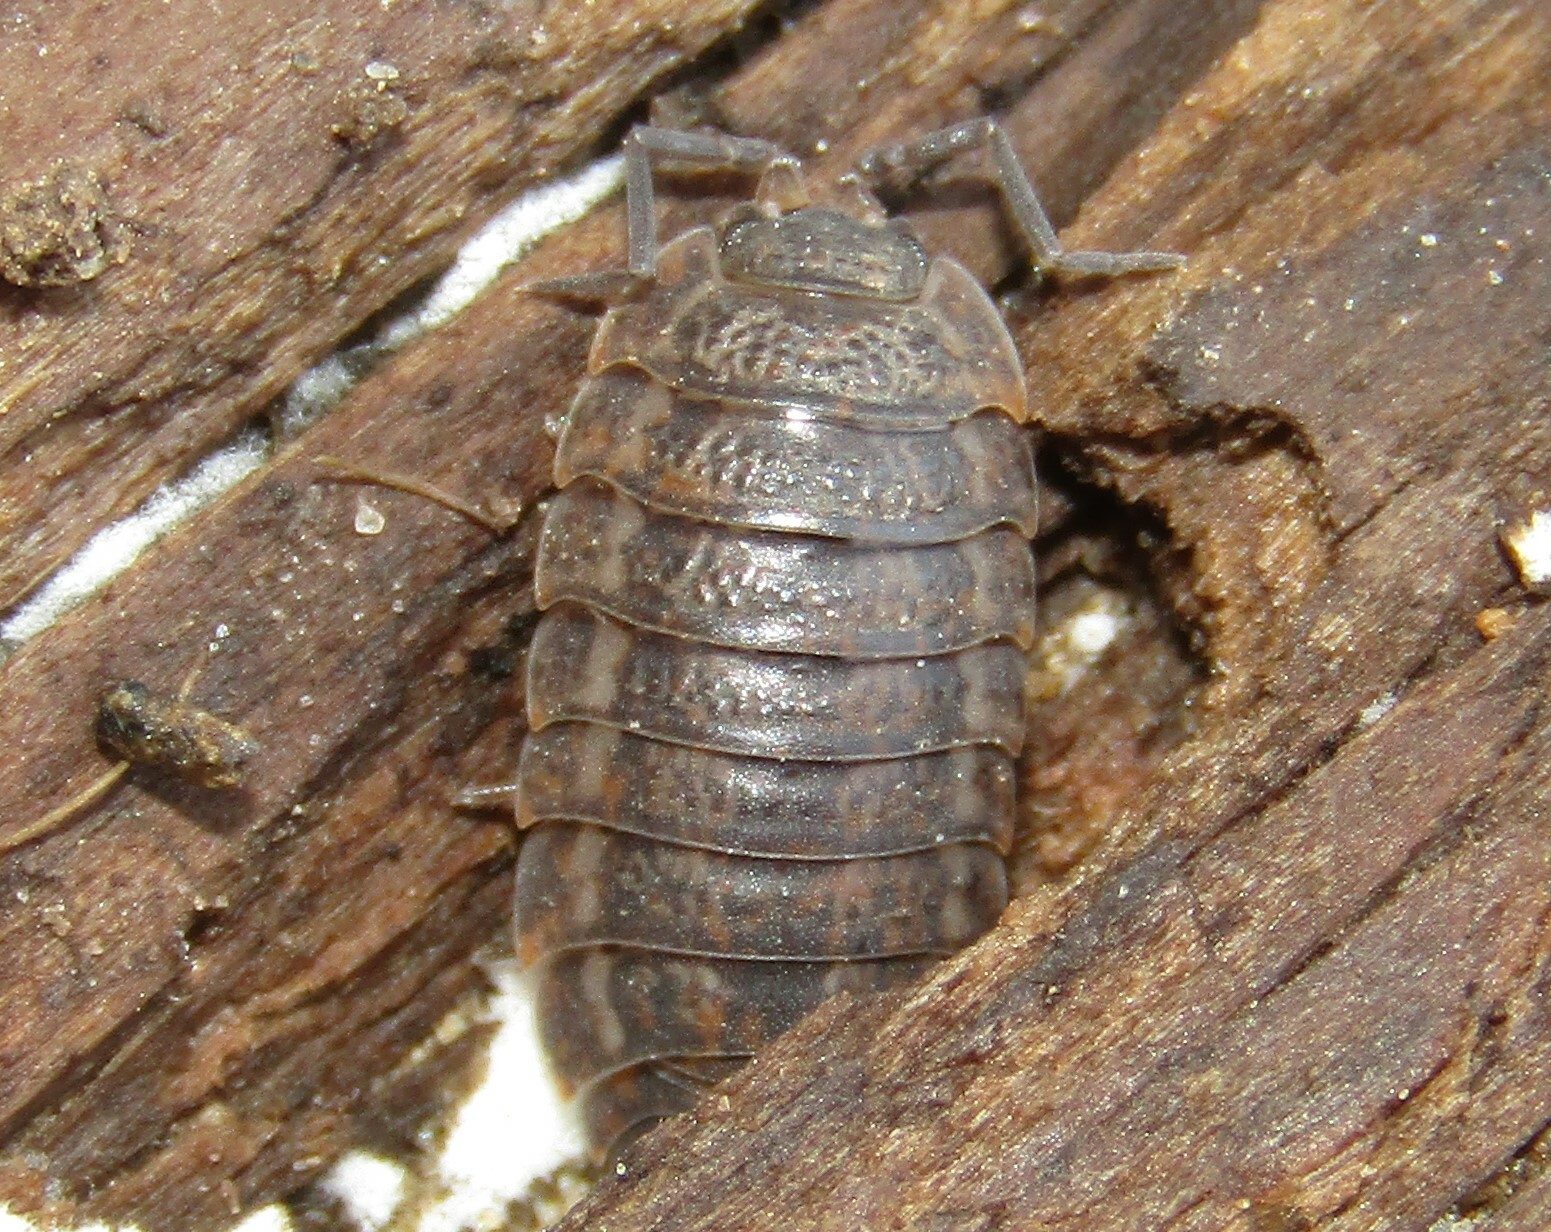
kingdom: Animalia
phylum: Arthropoda
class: Malacostraca
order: Isopoda
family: Trachelipodidae
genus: Trachelipus
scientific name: Trachelipus rathkii
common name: Isopod
